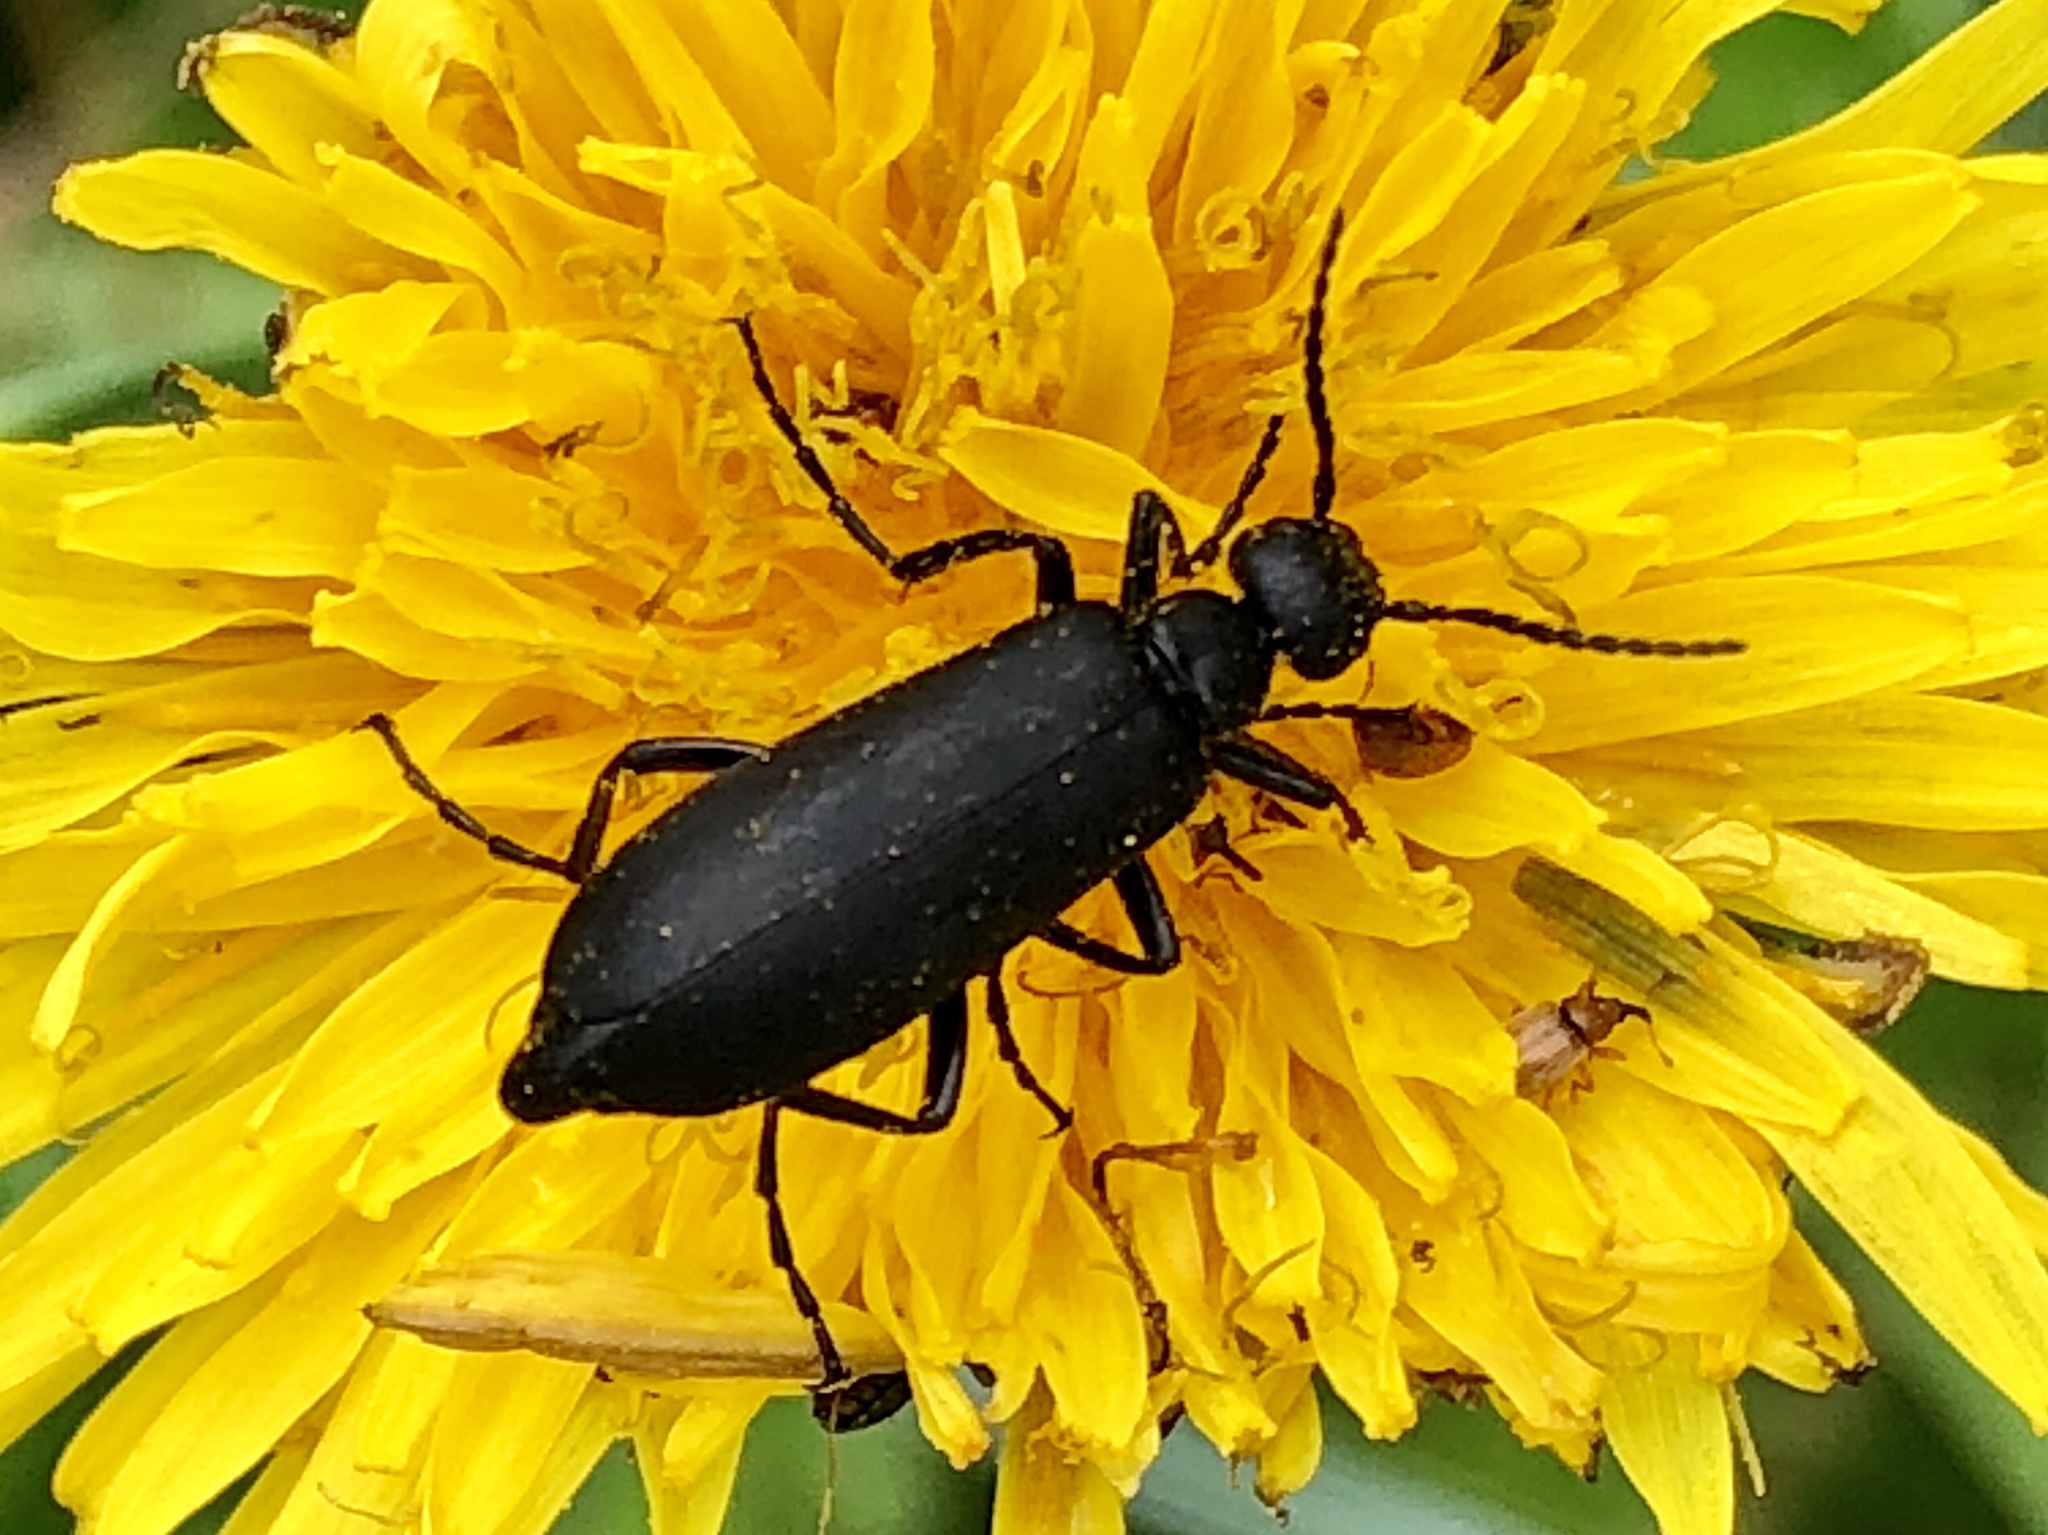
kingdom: Animalia
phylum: Arthropoda
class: Insecta
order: Coleoptera
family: Meloidae
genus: Epicauta
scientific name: Epicauta pensylvanica
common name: Black blister beetle
